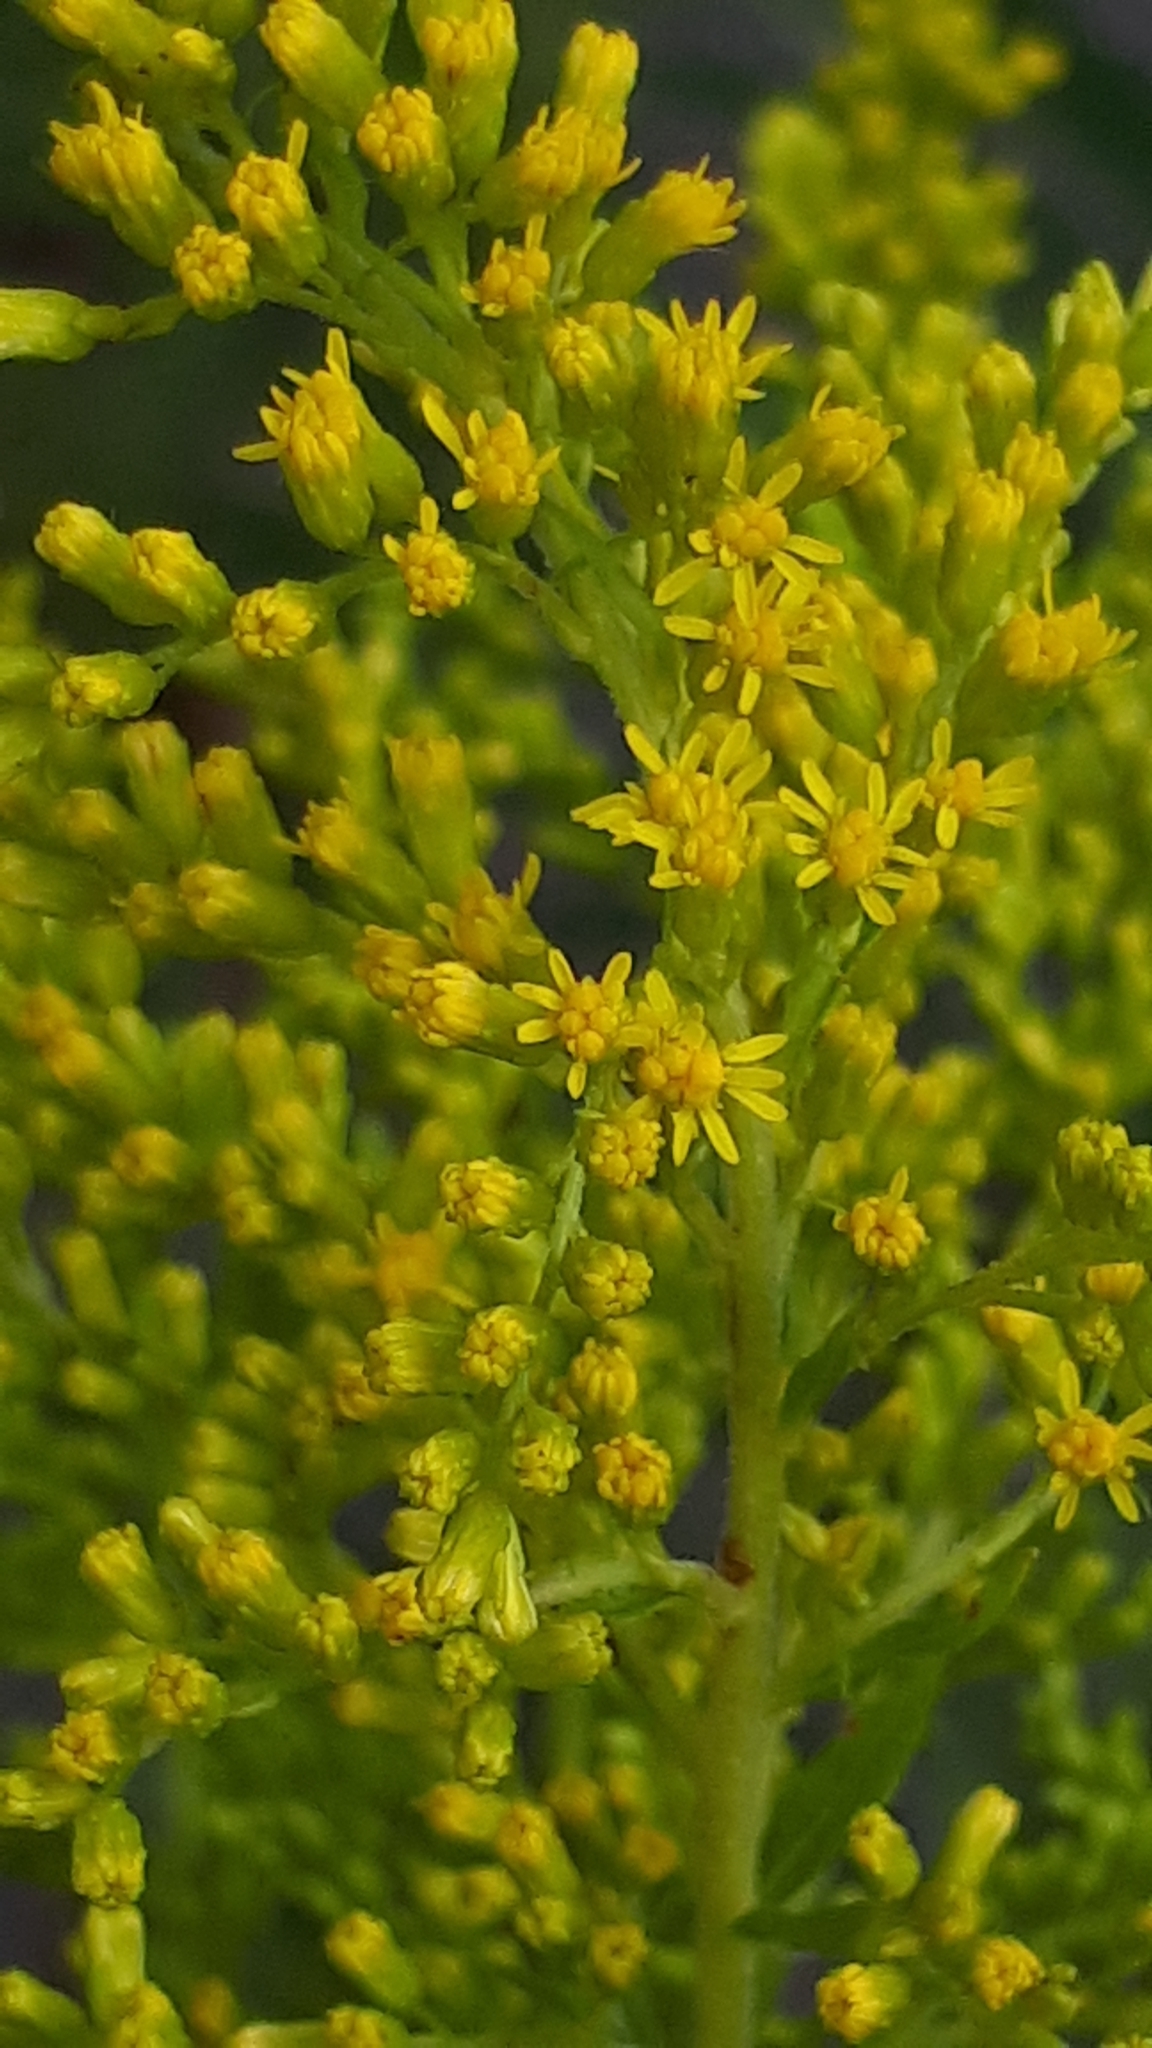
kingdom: Plantae
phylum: Tracheophyta
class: Magnoliopsida
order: Asterales
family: Asteraceae
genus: Solidago
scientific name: Solidago canadensis
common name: Canada goldenrod
